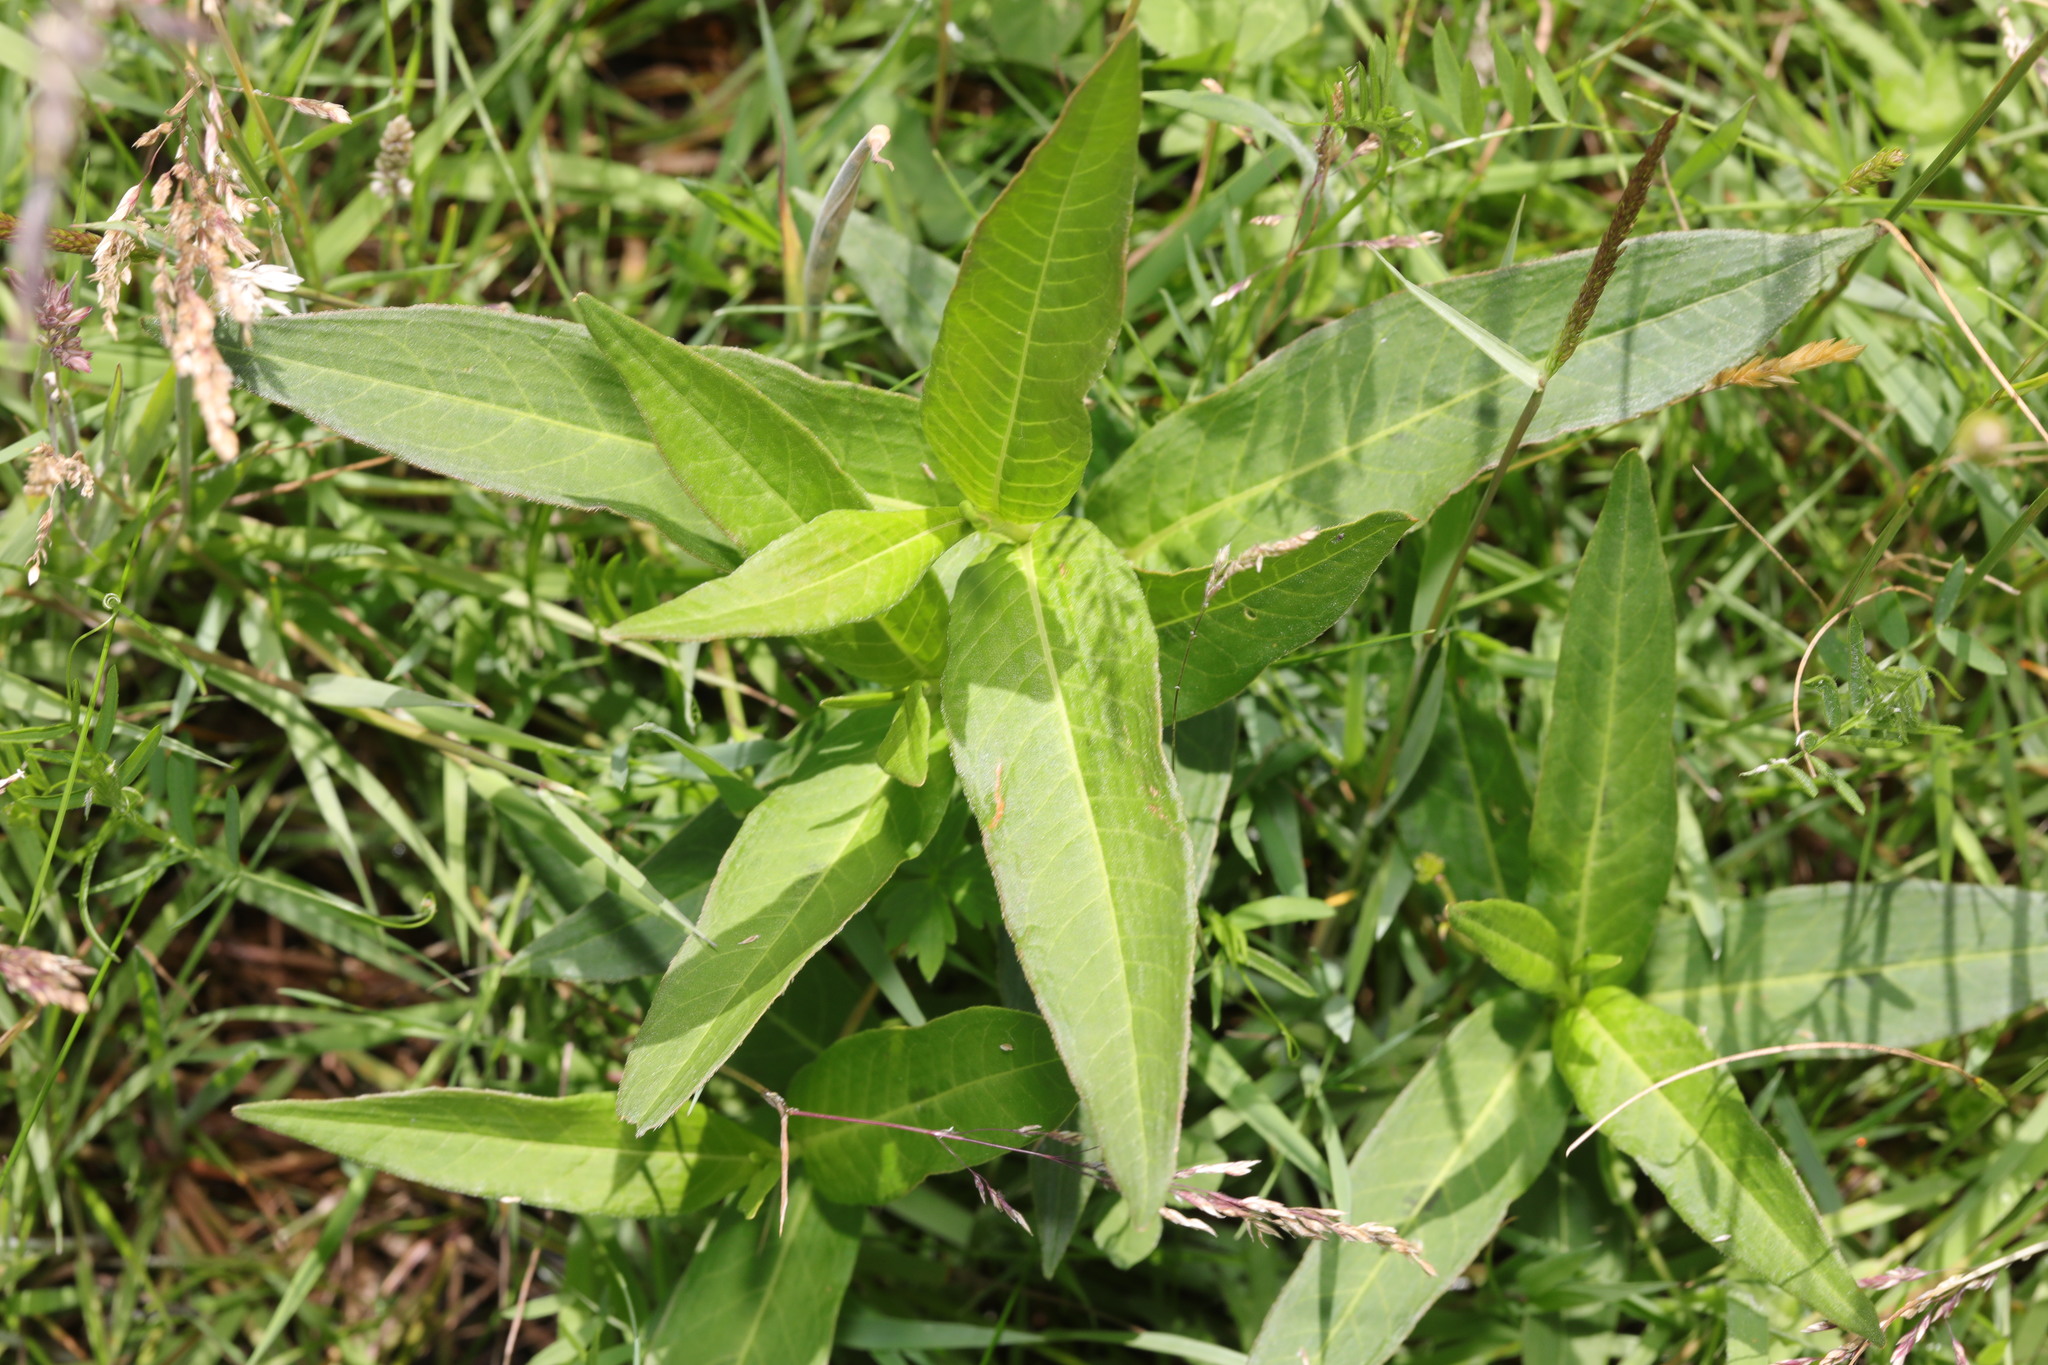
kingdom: Plantae
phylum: Tracheophyta
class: Magnoliopsida
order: Caryophyllales
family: Polygonaceae
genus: Persicaria
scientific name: Persicaria amphibia
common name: Amphibious bistort
